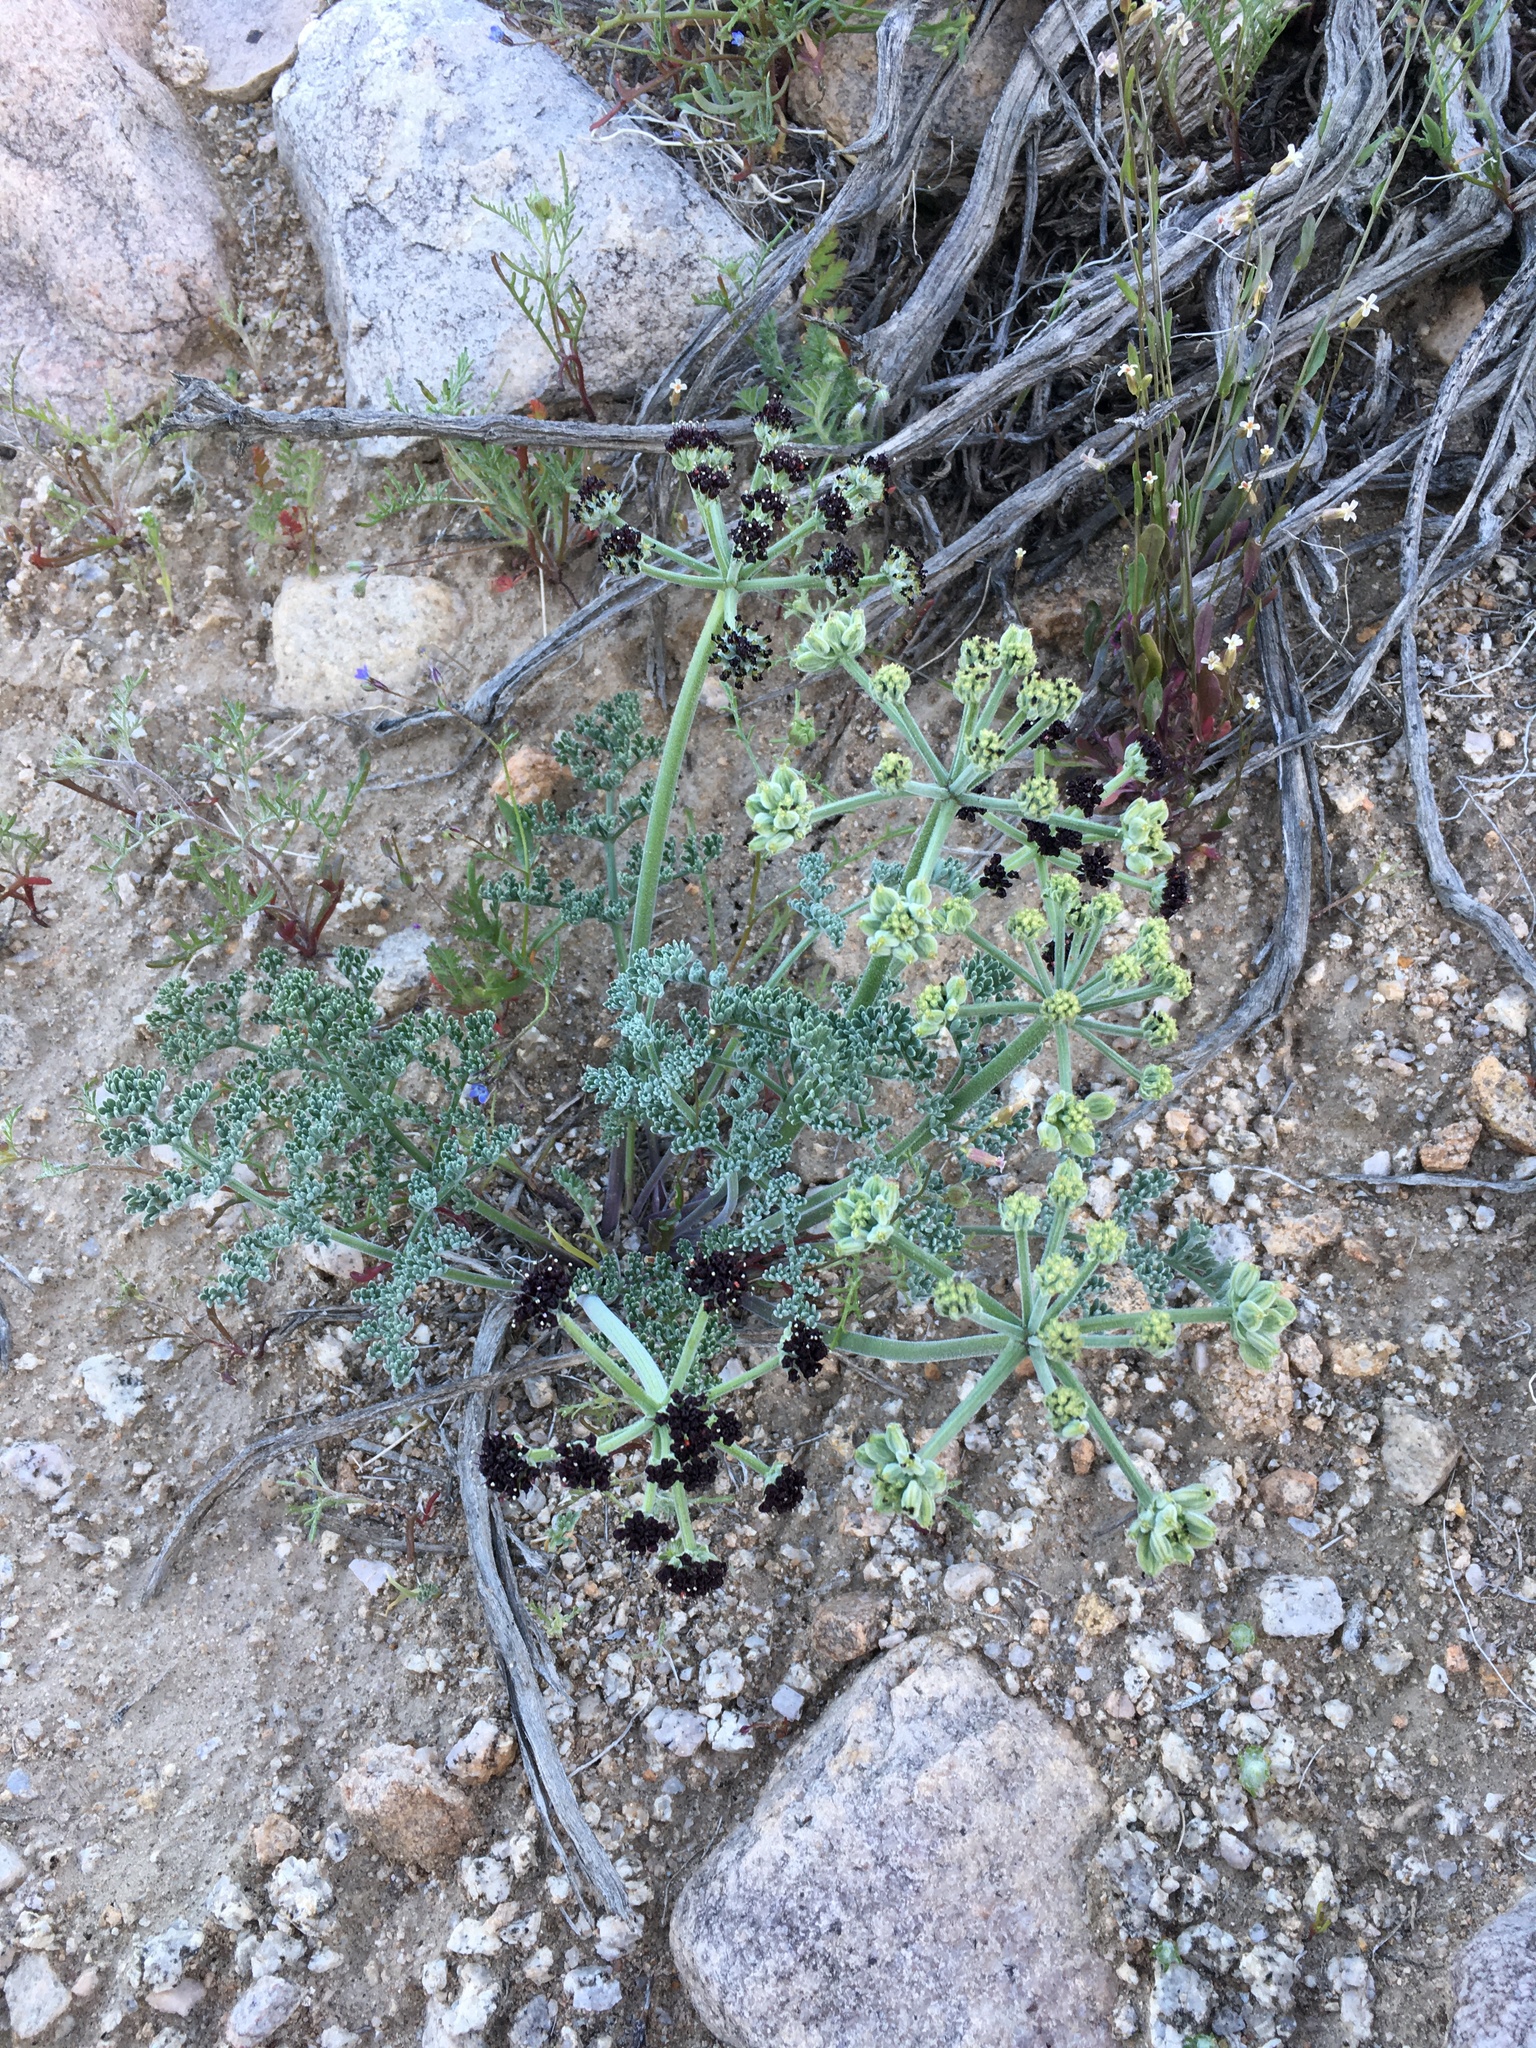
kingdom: Plantae
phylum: Tracheophyta
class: Magnoliopsida
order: Apiales
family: Apiaceae
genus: Lomatium
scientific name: Lomatium mohavense
